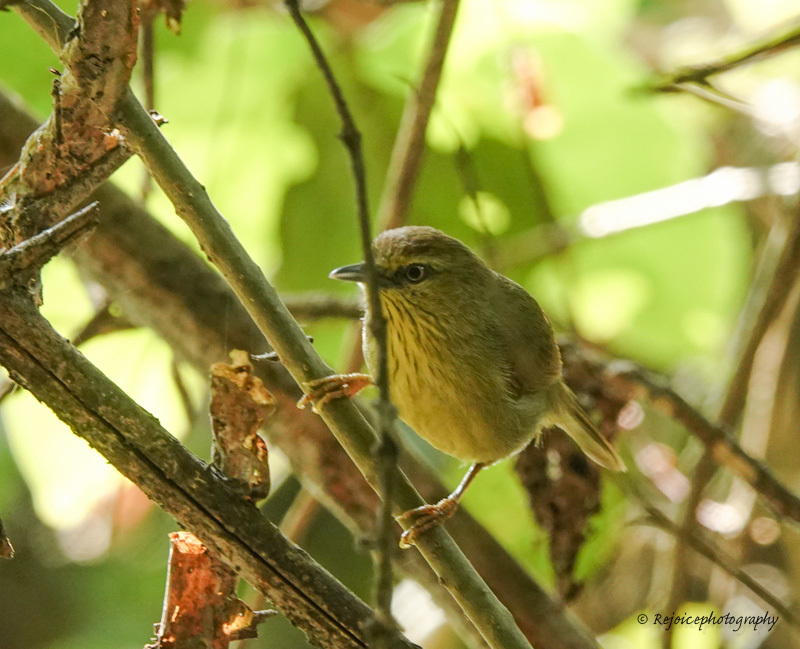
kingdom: Animalia
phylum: Chordata
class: Aves
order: Passeriformes
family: Timaliidae
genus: Macronus
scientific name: Macronus gularis
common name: Striped tit-babbler
